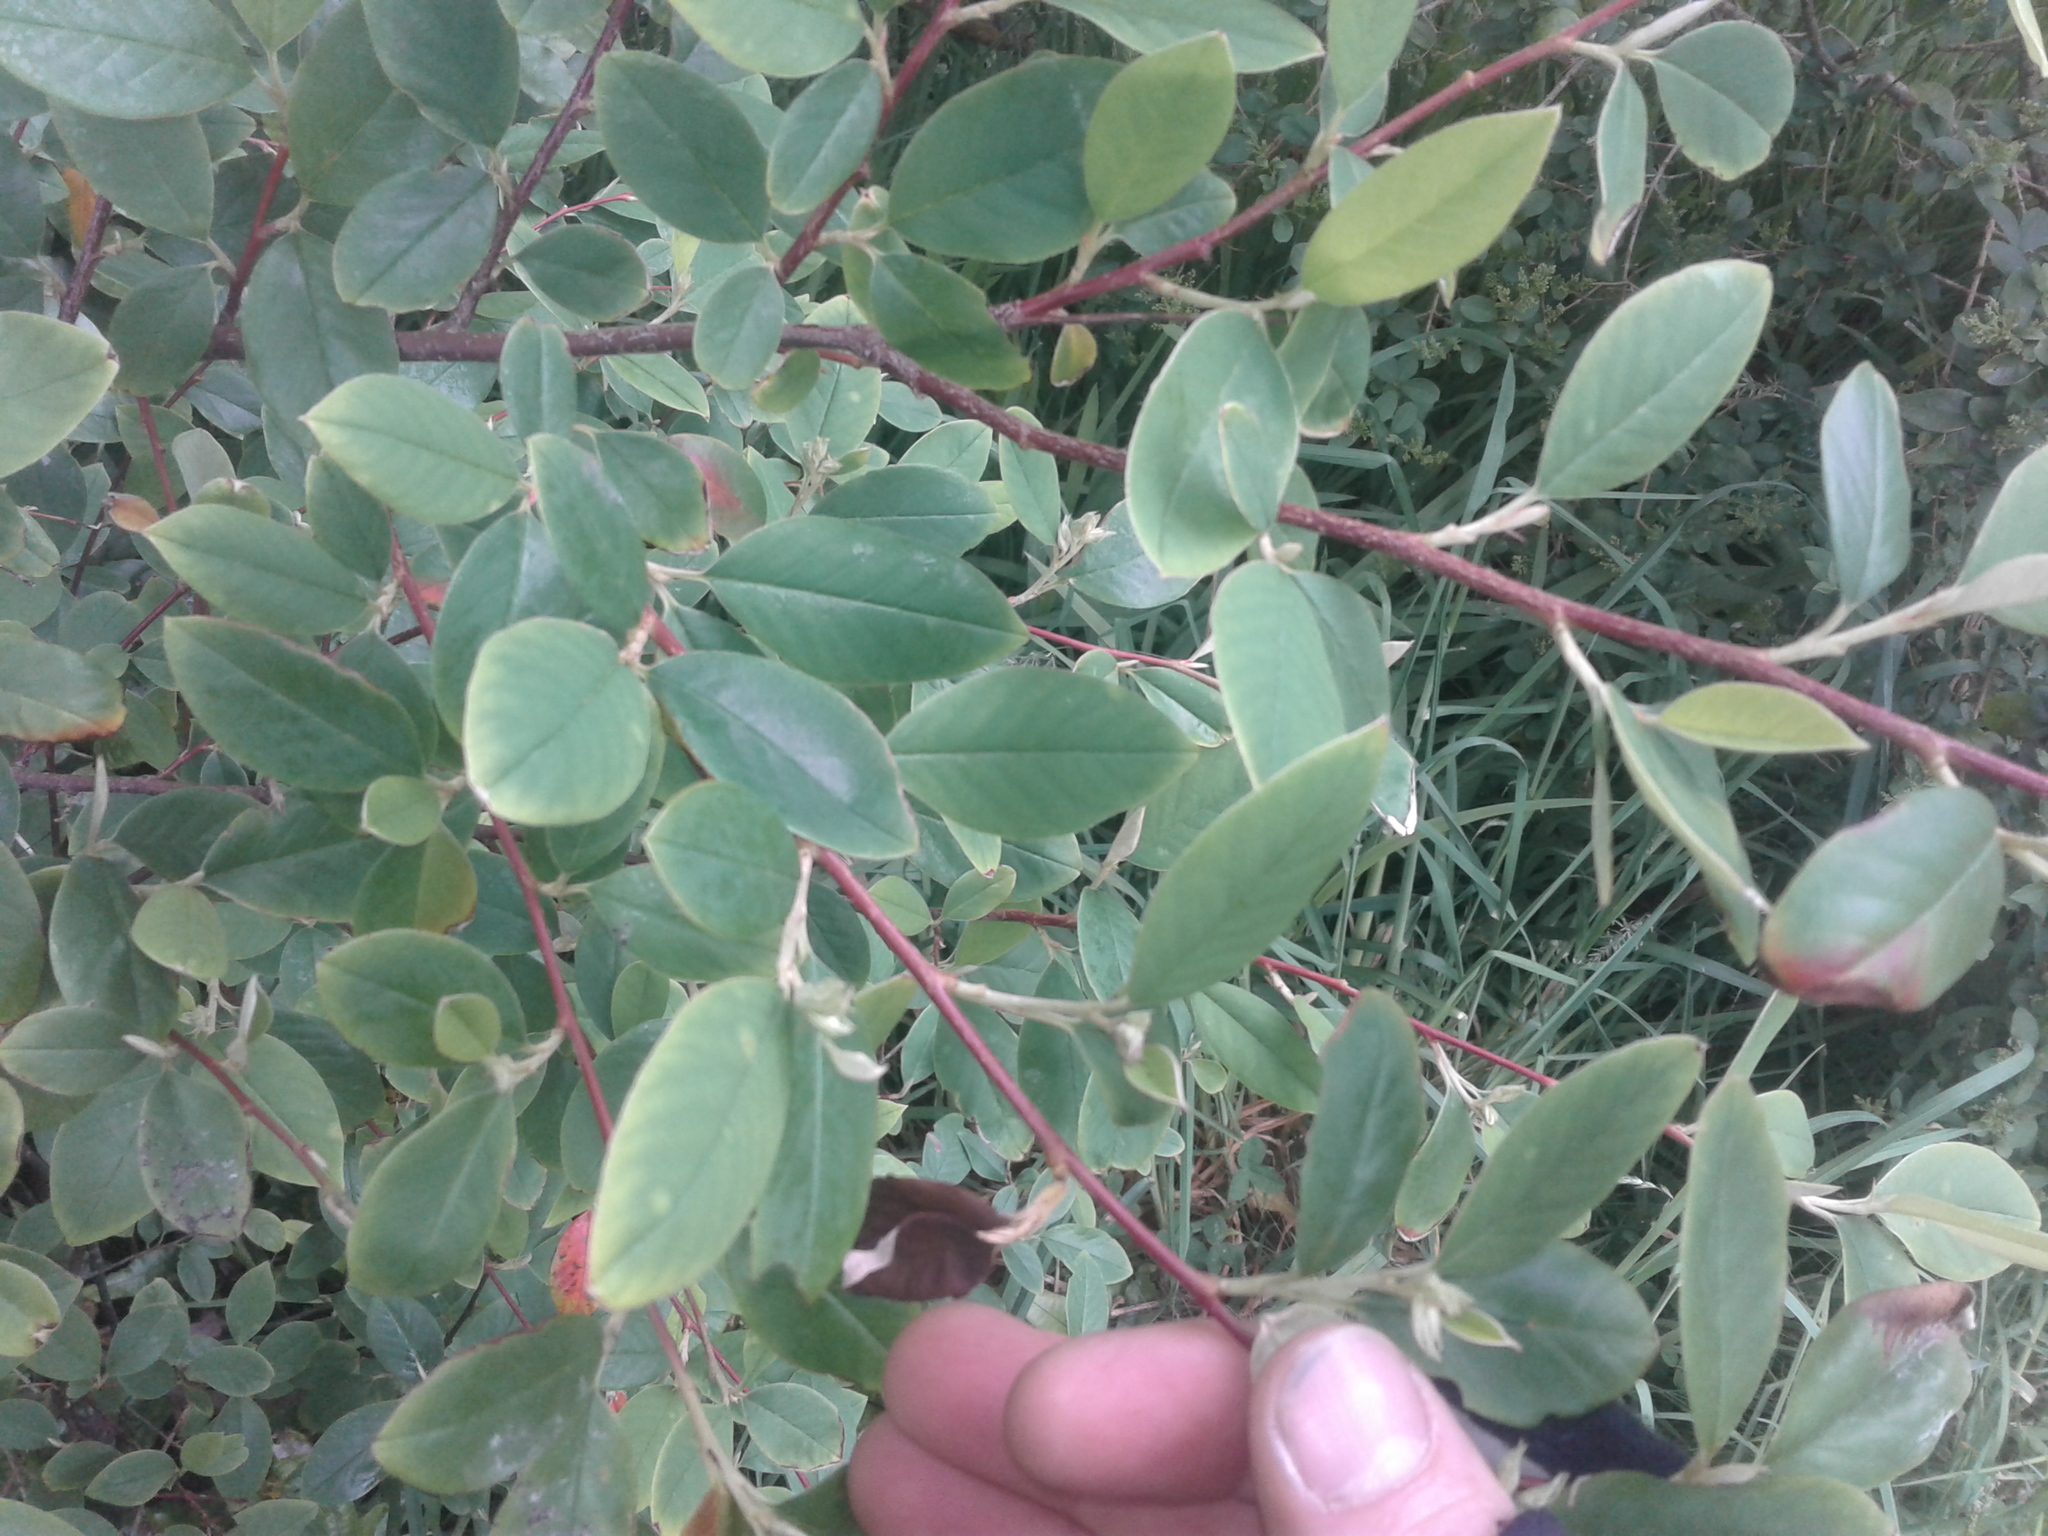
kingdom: Plantae
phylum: Tracheophyta
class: Magnoliopsida
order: Rosales
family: Rosaceae
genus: Cotoneaster
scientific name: Cotoneaster glaucophyllus
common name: Glaucous cotoneaster
